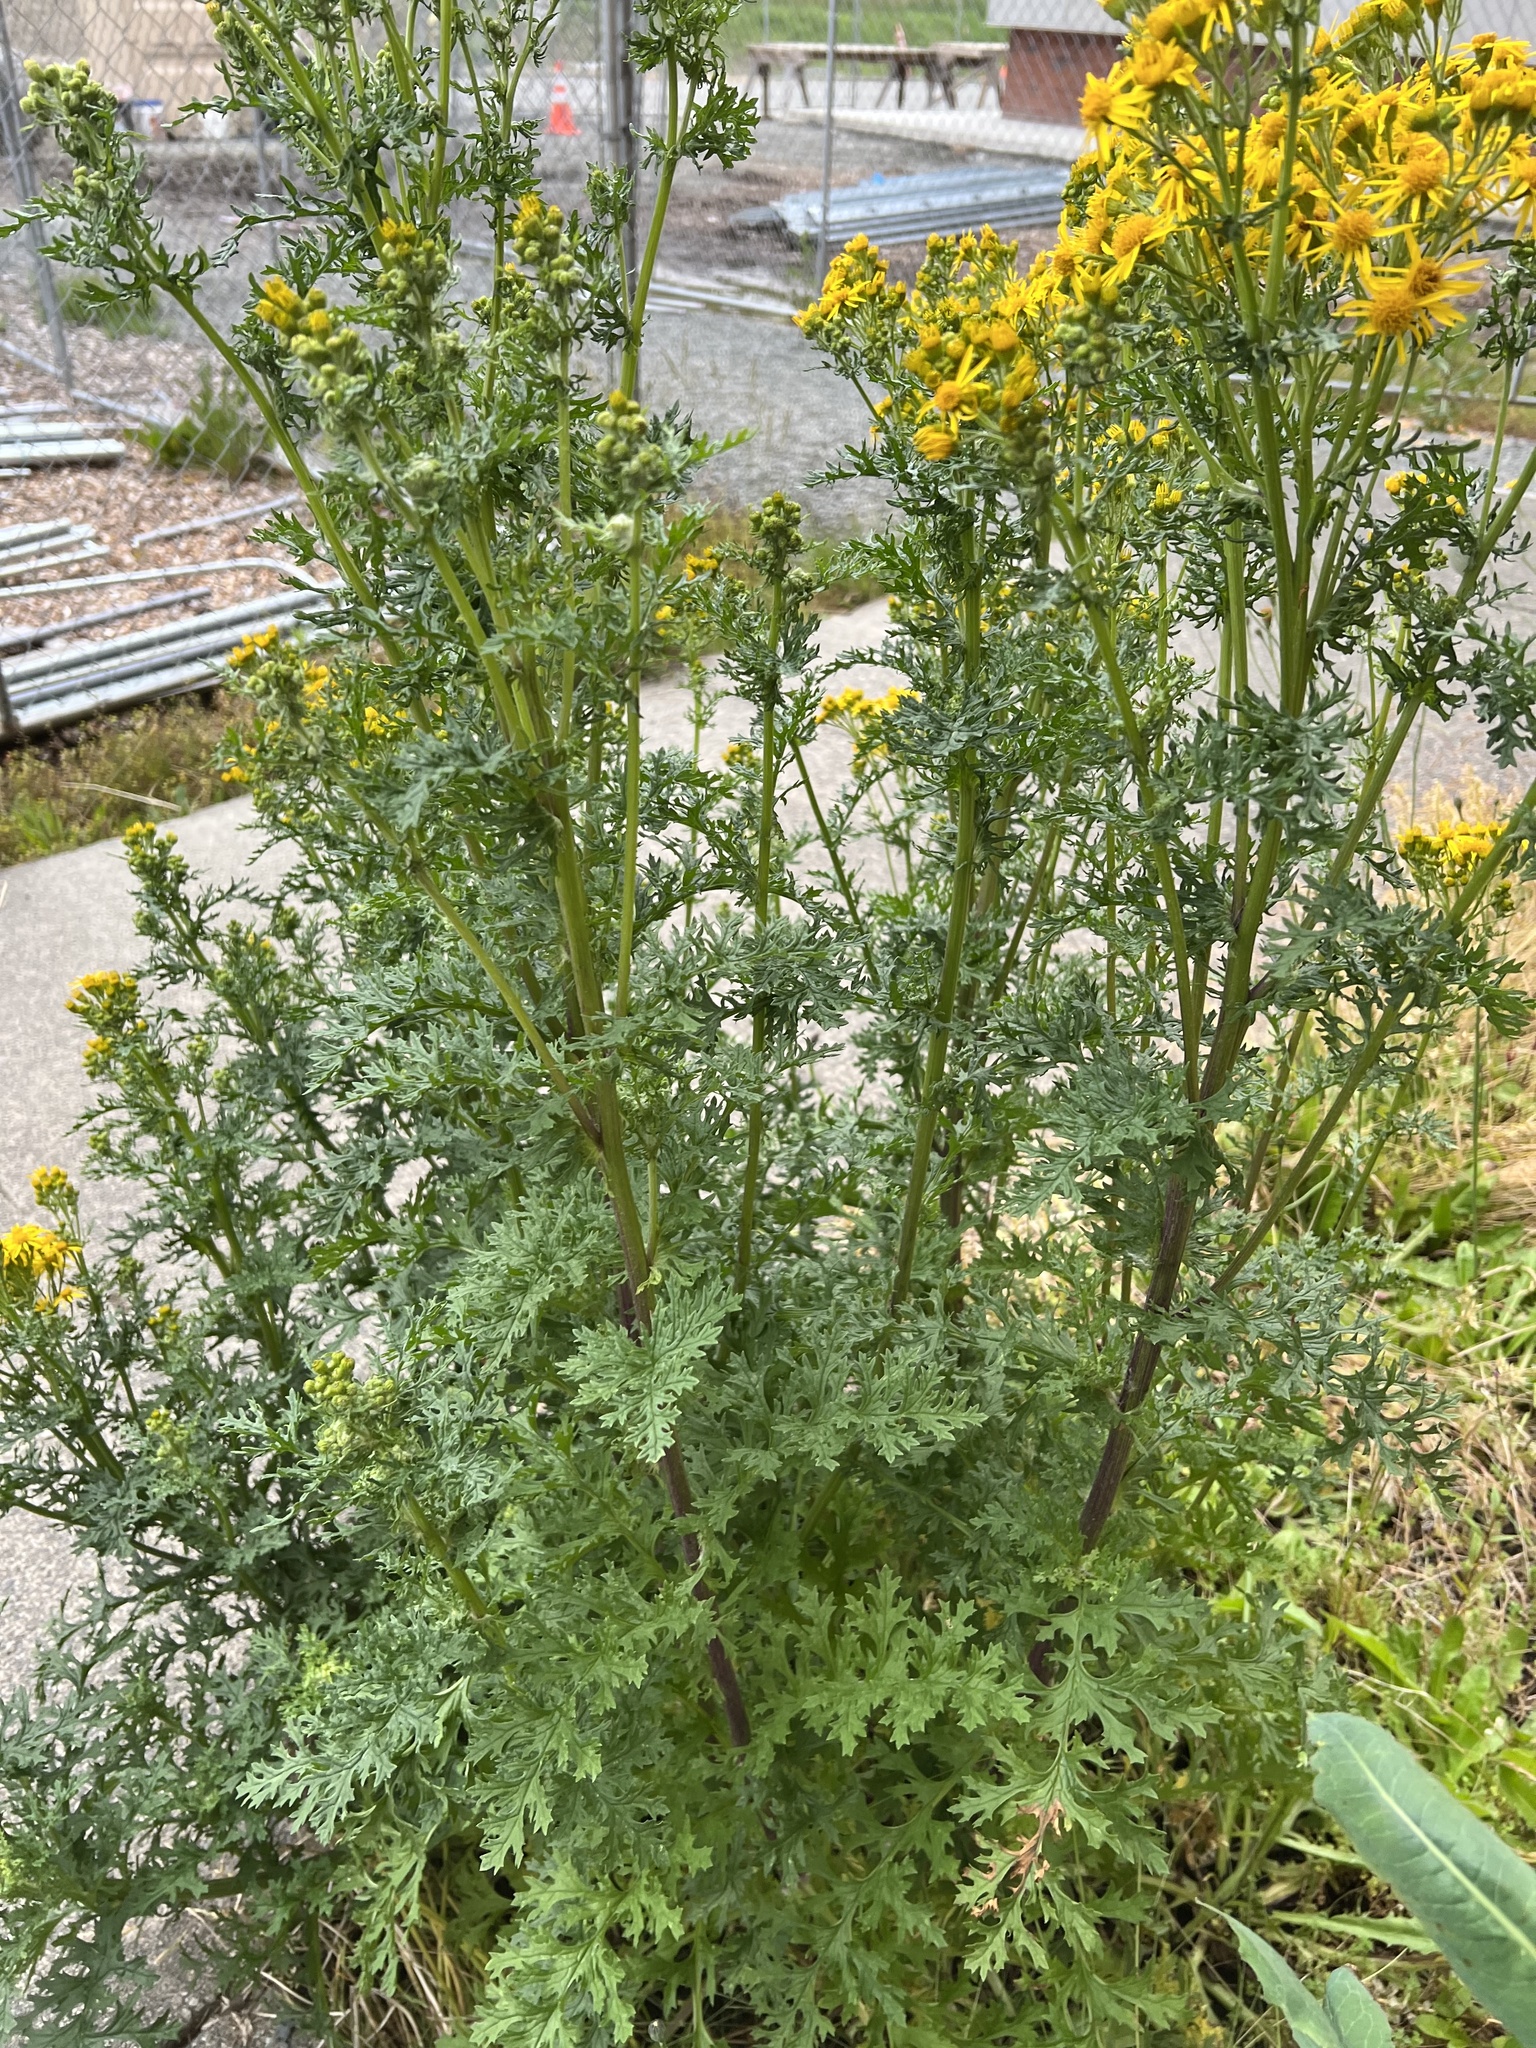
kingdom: Plantae
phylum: Tracheophyta
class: Magnoliopsida
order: Asterales
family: Asteraceae
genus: Jacobaea
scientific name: Jacobaea vulgaris
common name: Stinking willie
